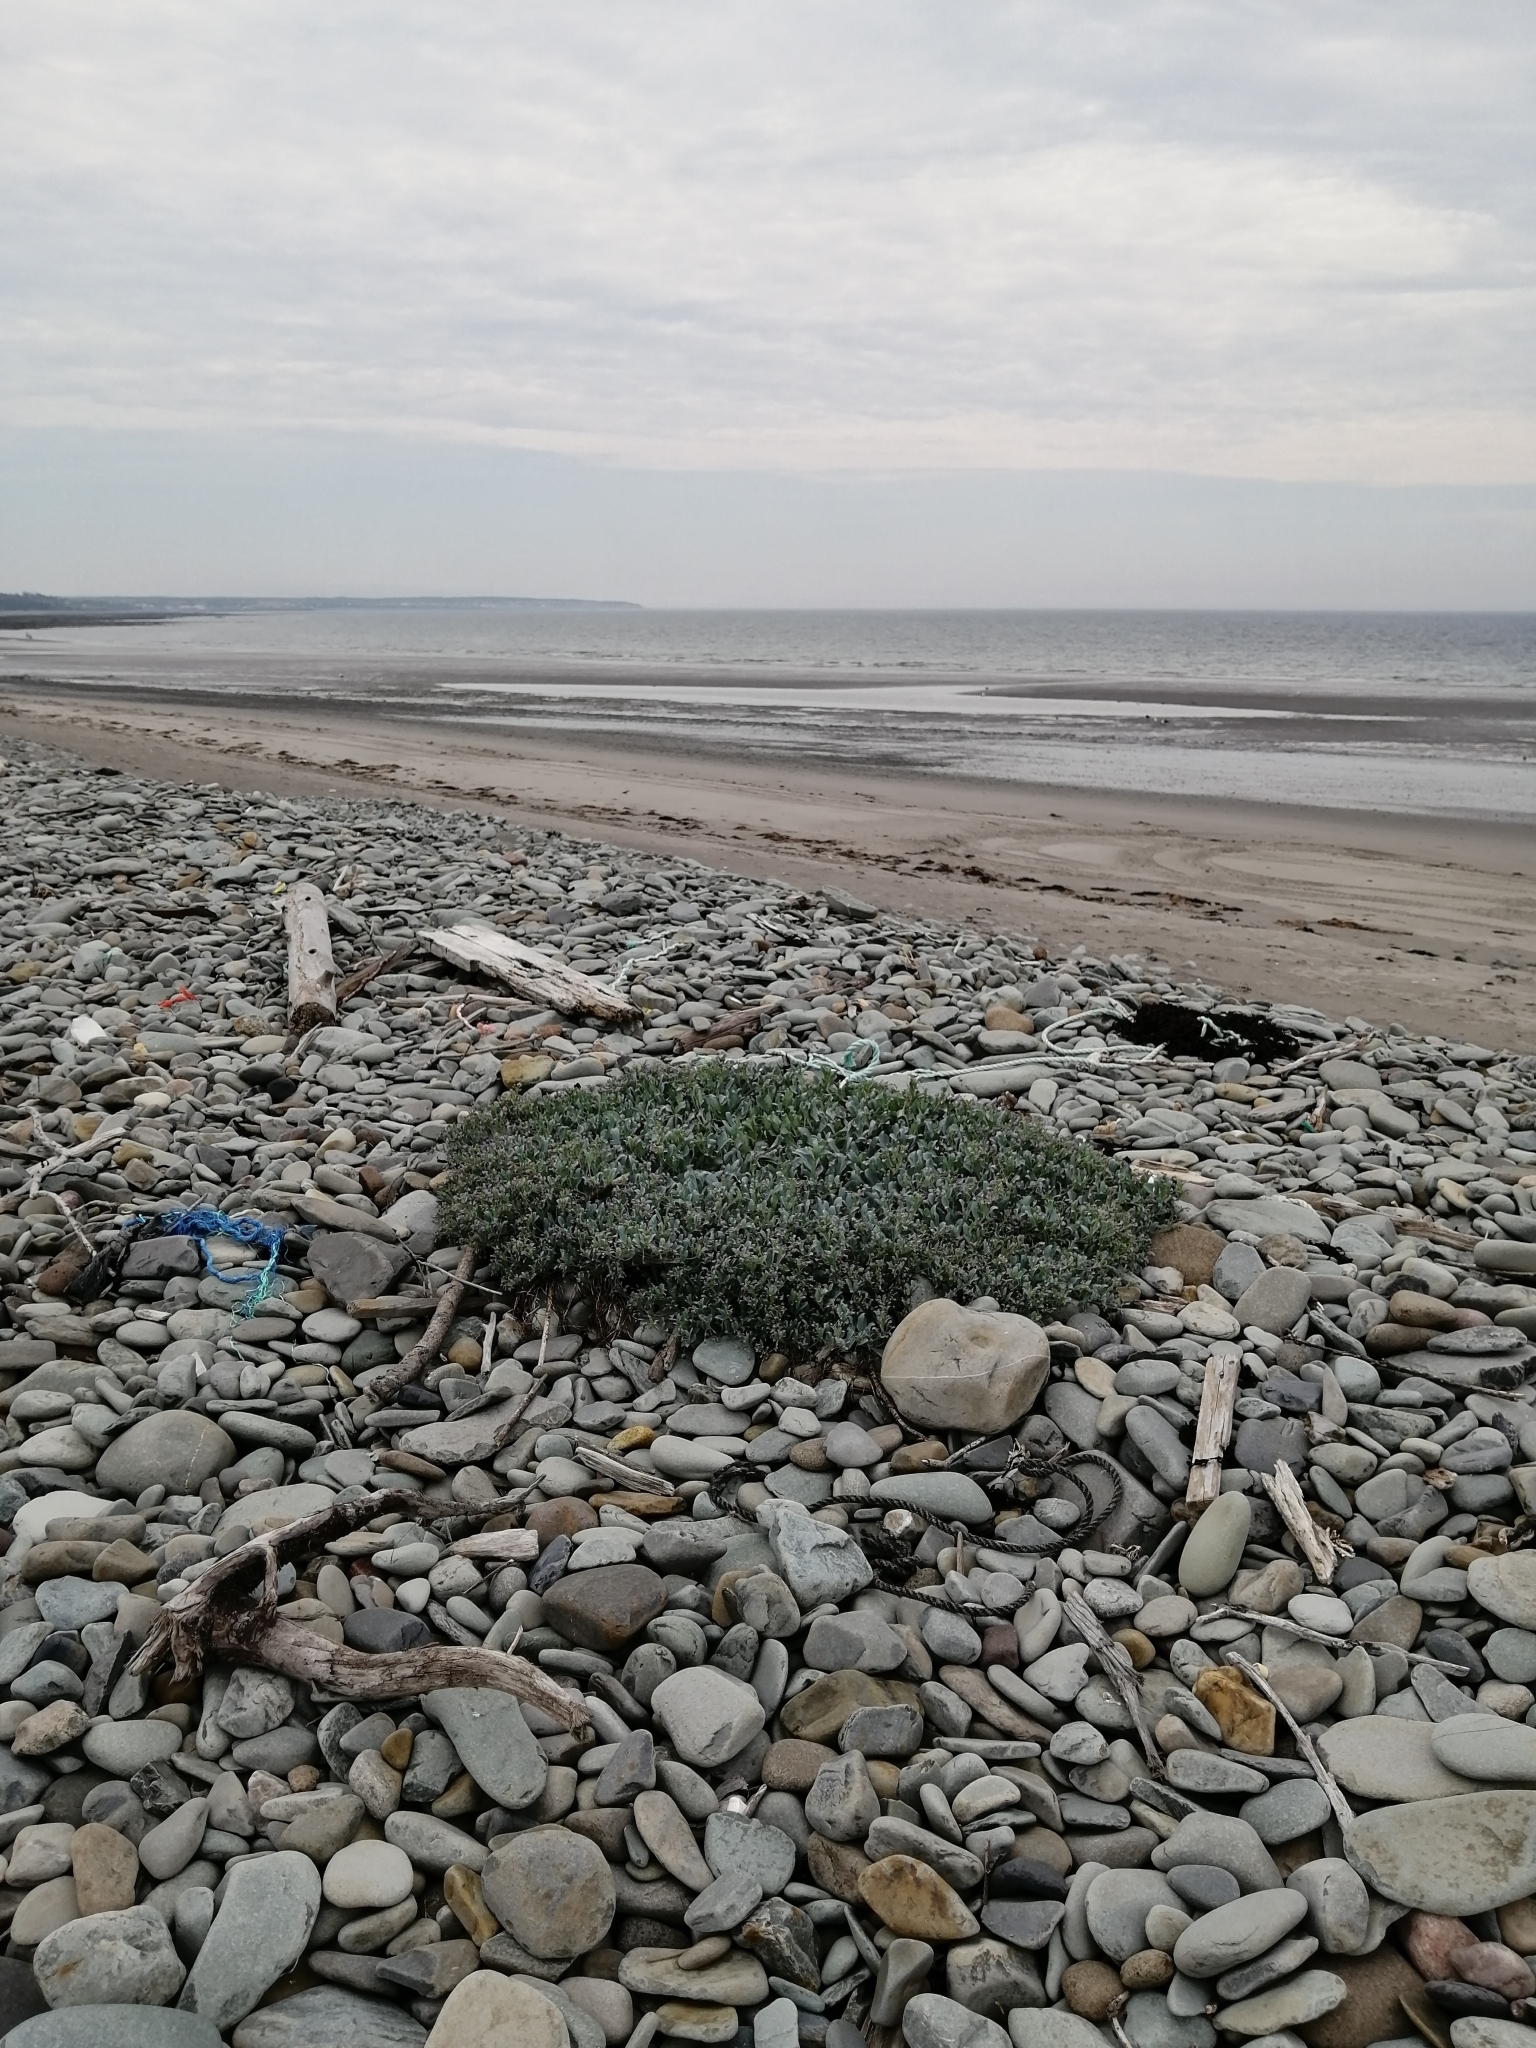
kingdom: Plantae
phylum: Tracheophyta
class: Magnoliopsida
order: Boraginales
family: Boraginaceae
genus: Mertensia
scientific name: Mertensia maritima
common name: Oysterplant
